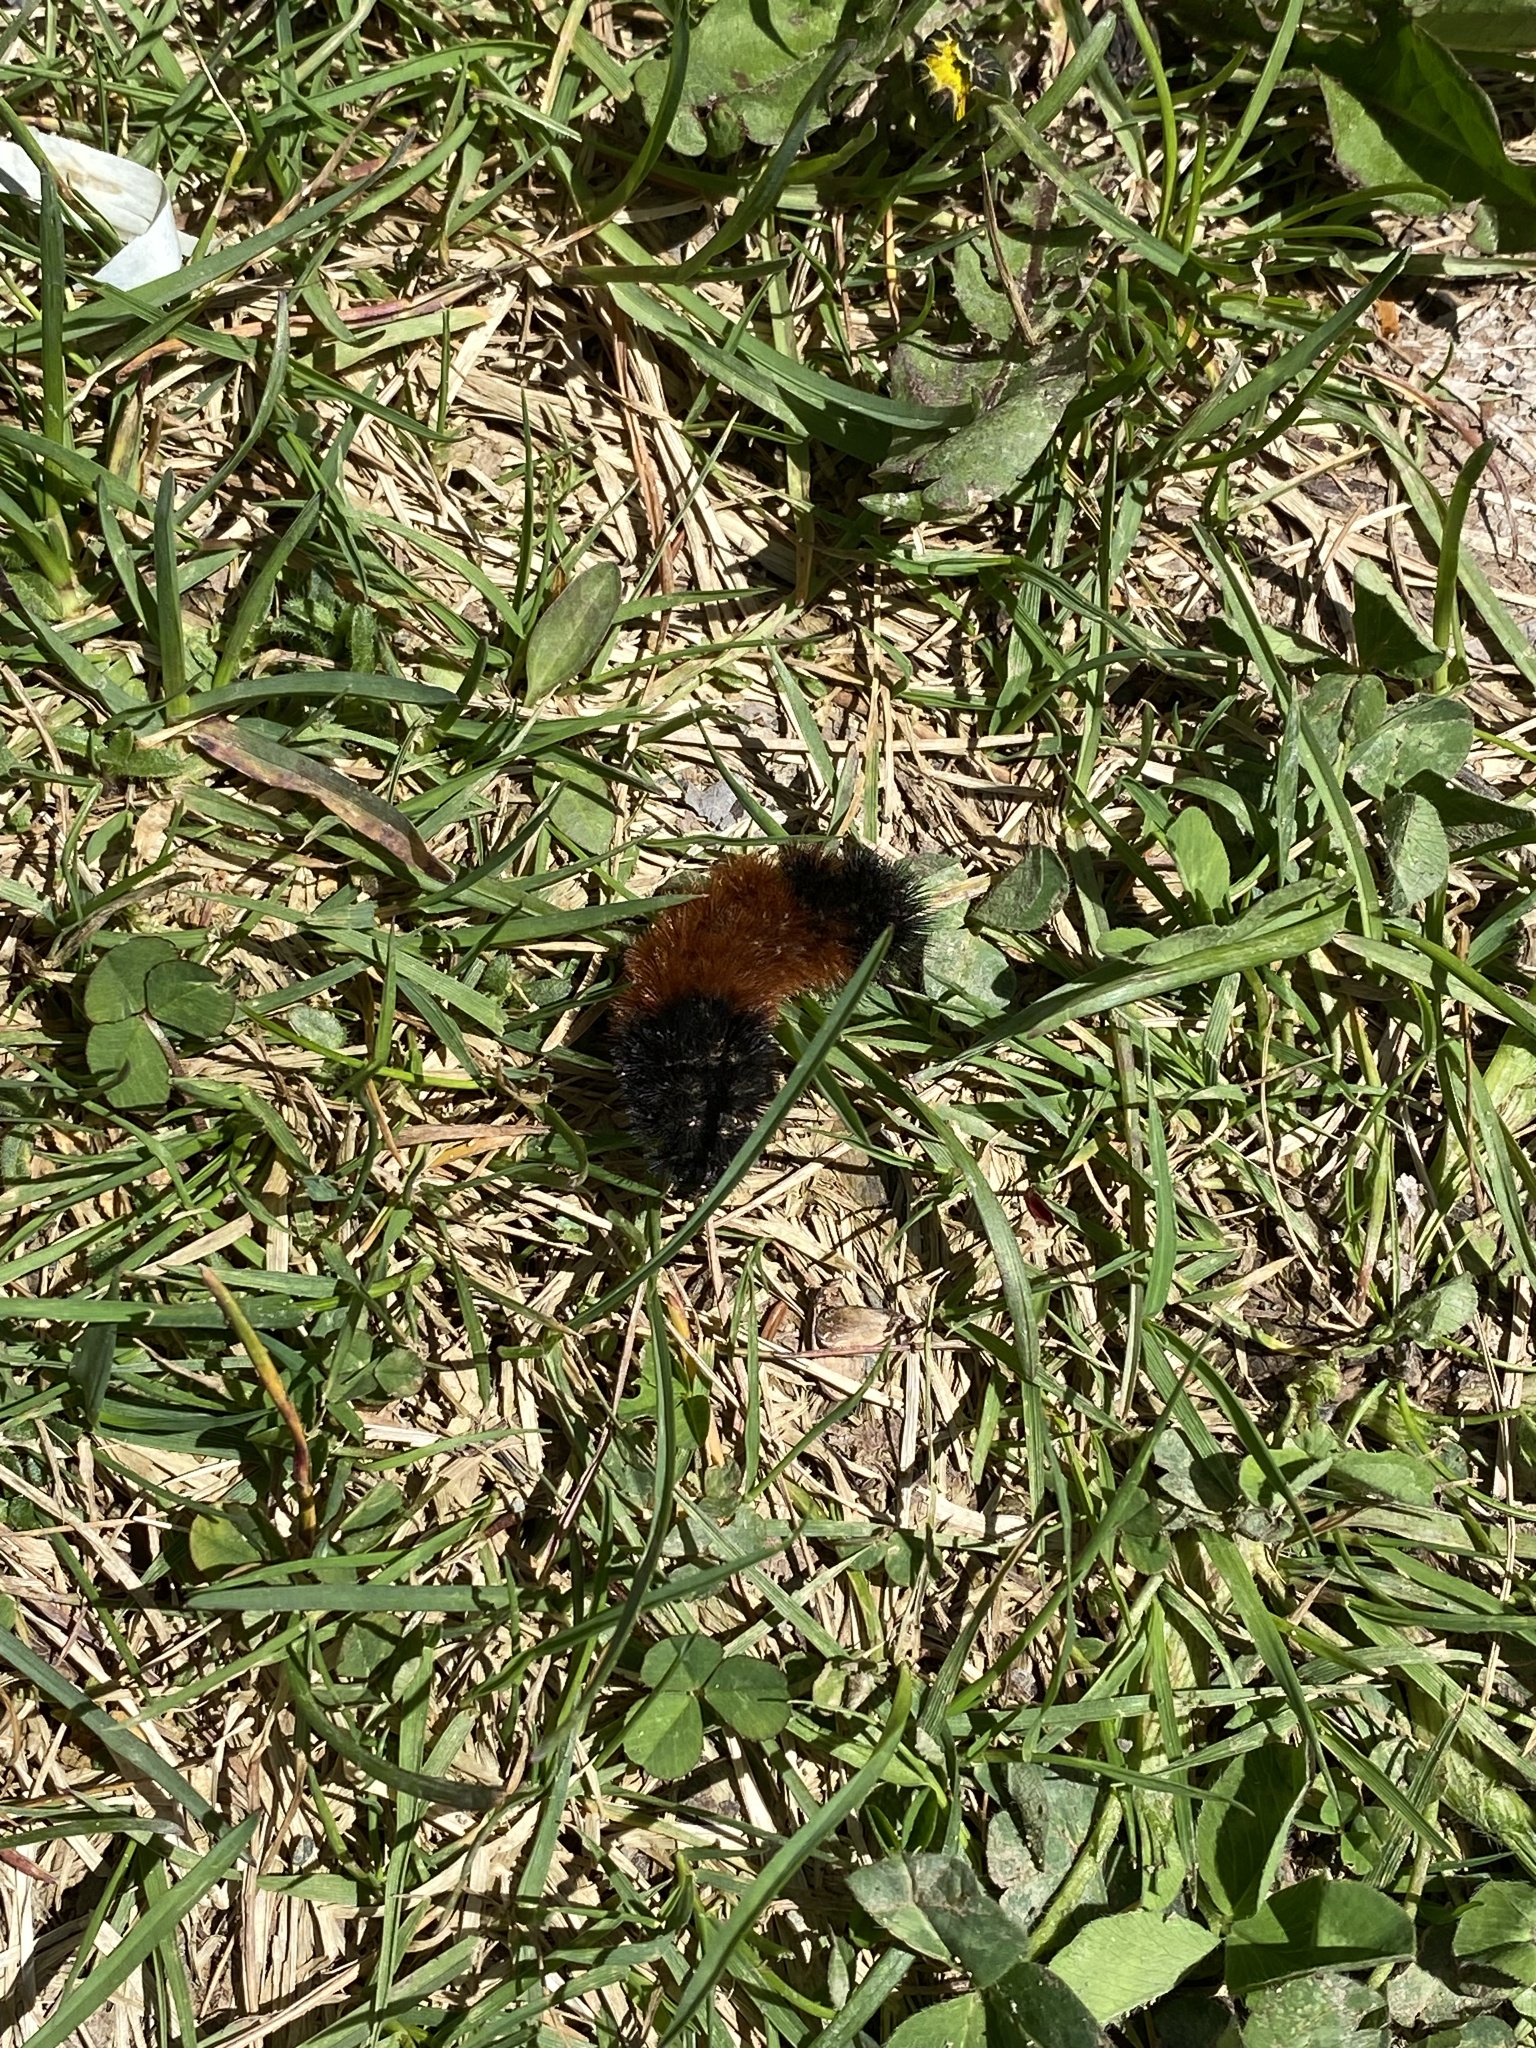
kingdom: Animalia
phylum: Arthropoda
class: Insecta
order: Lepidoptera
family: Erebidae
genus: Pyrrharctia
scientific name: Pyrrharctia isabella
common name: Isabella tiger moth
